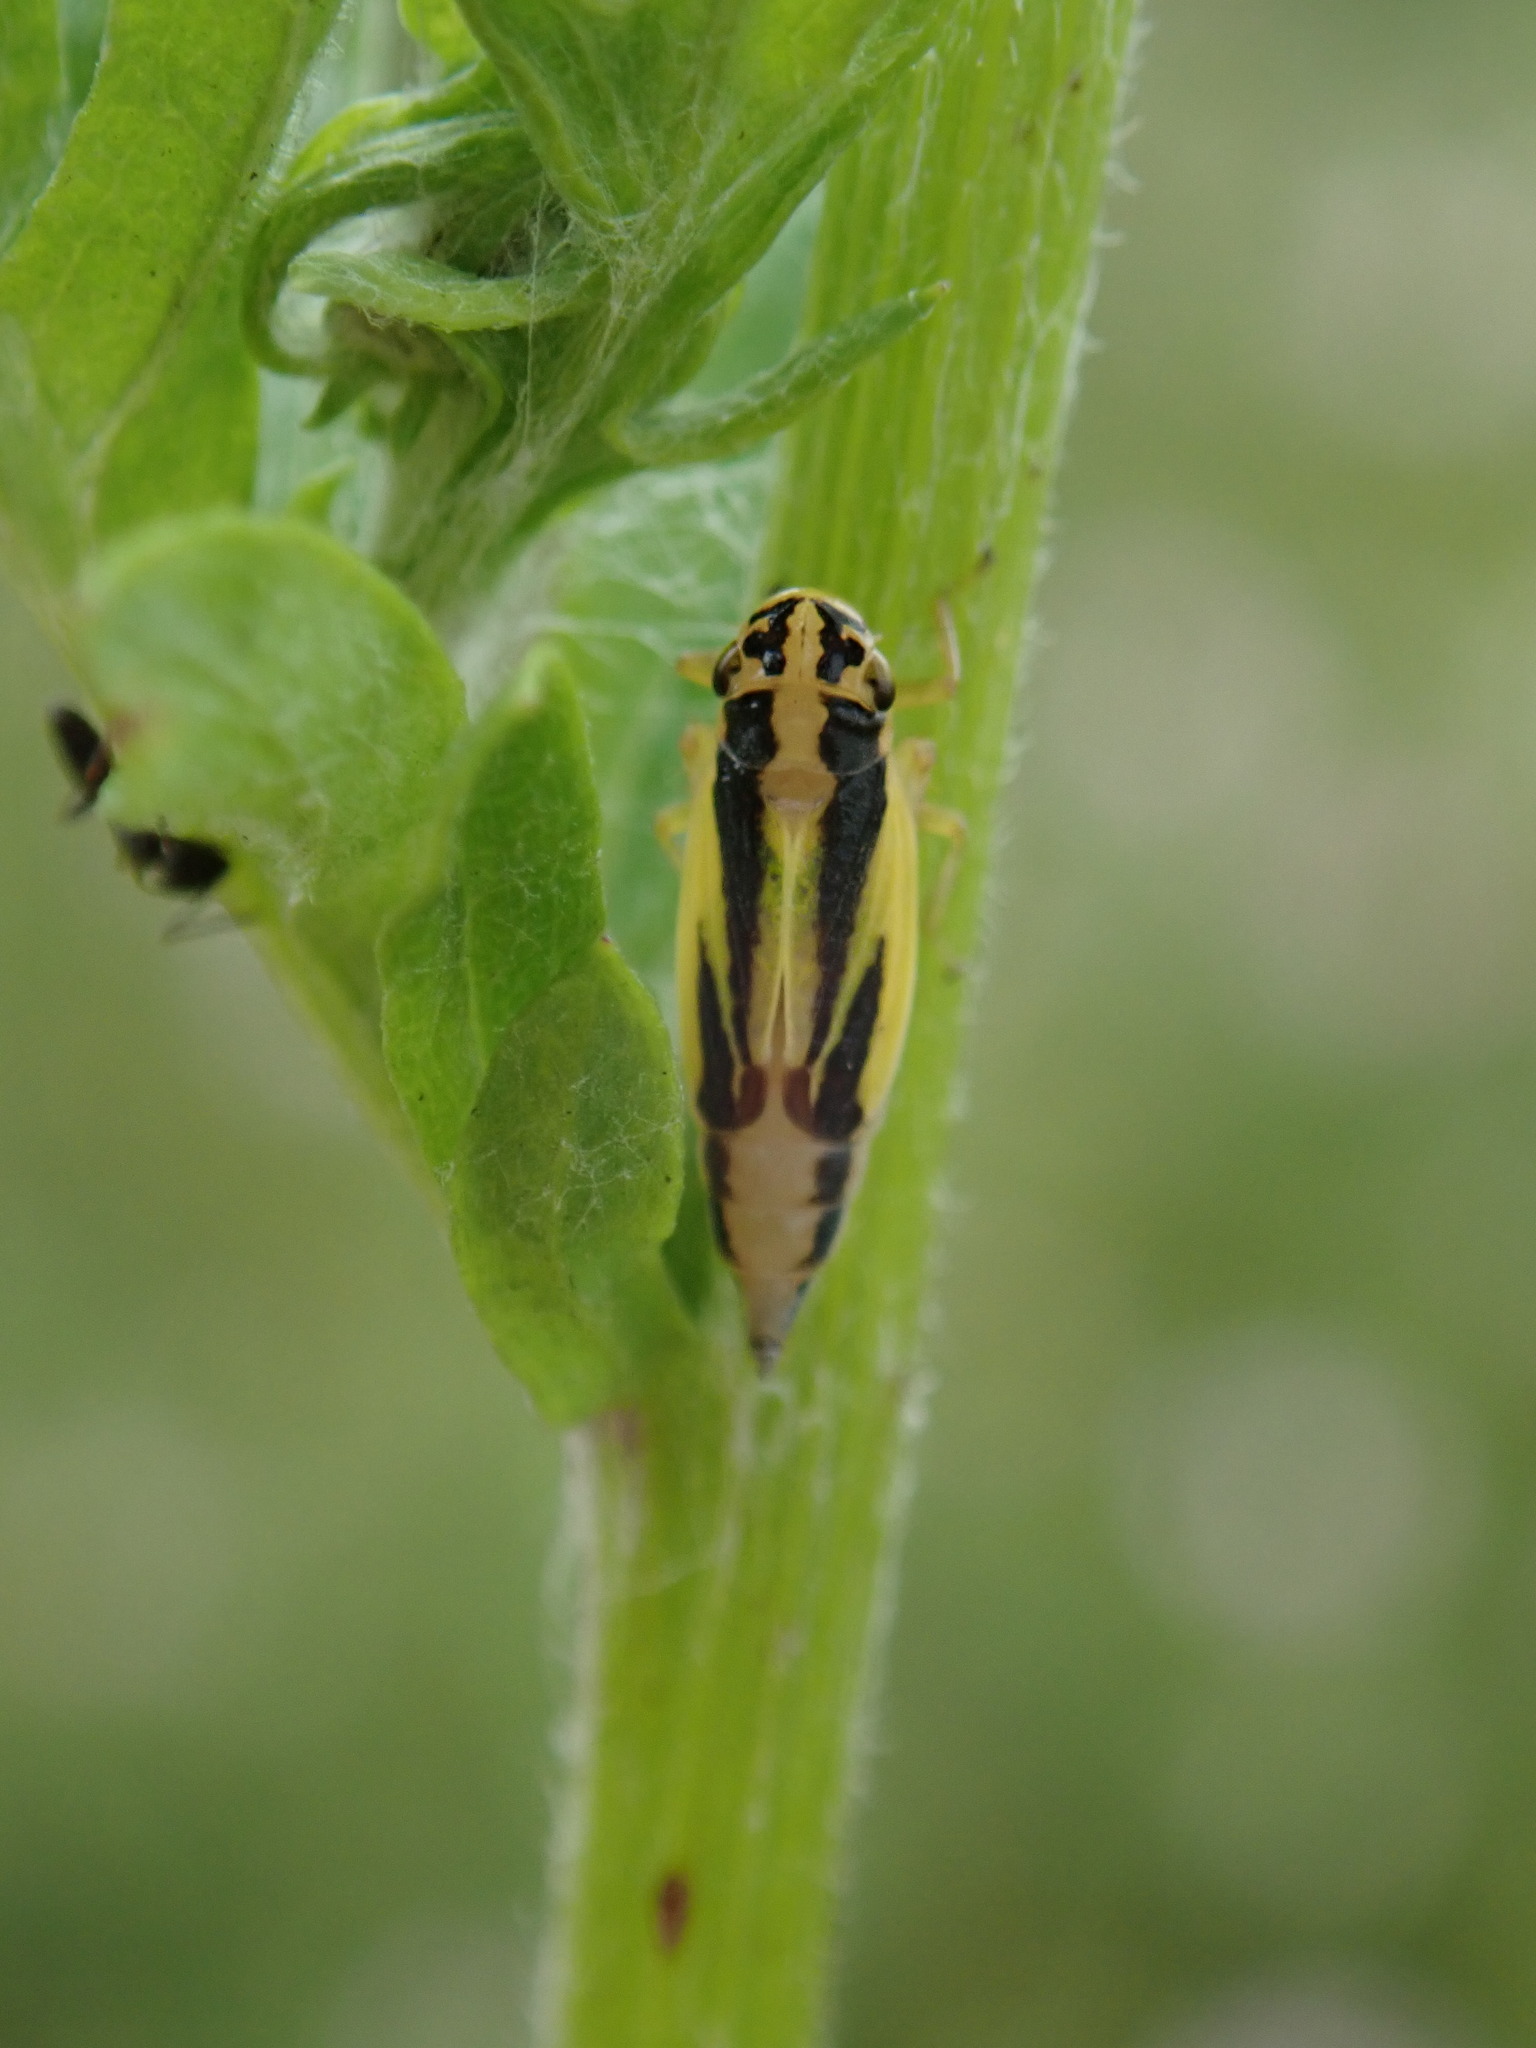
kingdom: Animalia
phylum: Arthropoda
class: Insecta
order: Hemiptera
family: Cicadellidae
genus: Evacanthus
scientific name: Evacanthus interruptus
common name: Leafhopper
